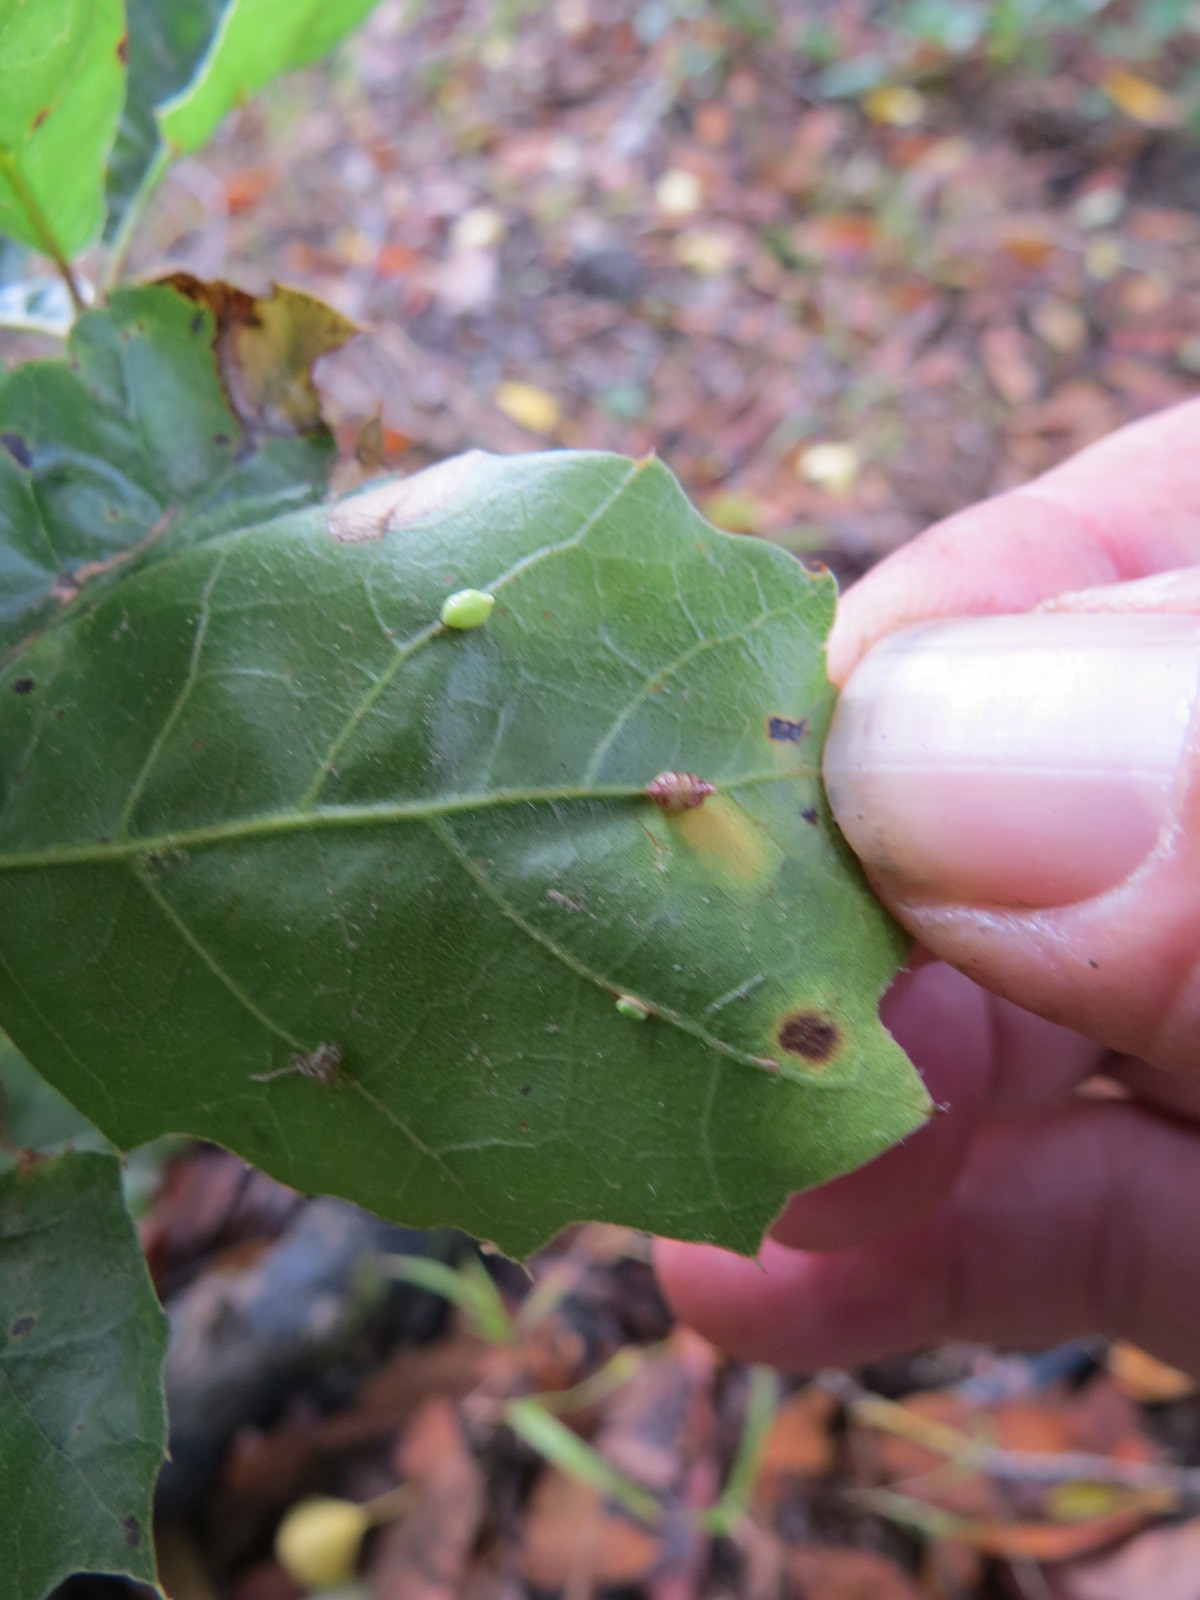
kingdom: Animalia
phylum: Arthropoda
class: Insecta
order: Hymenoptera
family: Cynipidae
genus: Dryocosmus
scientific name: Dryocosmus
